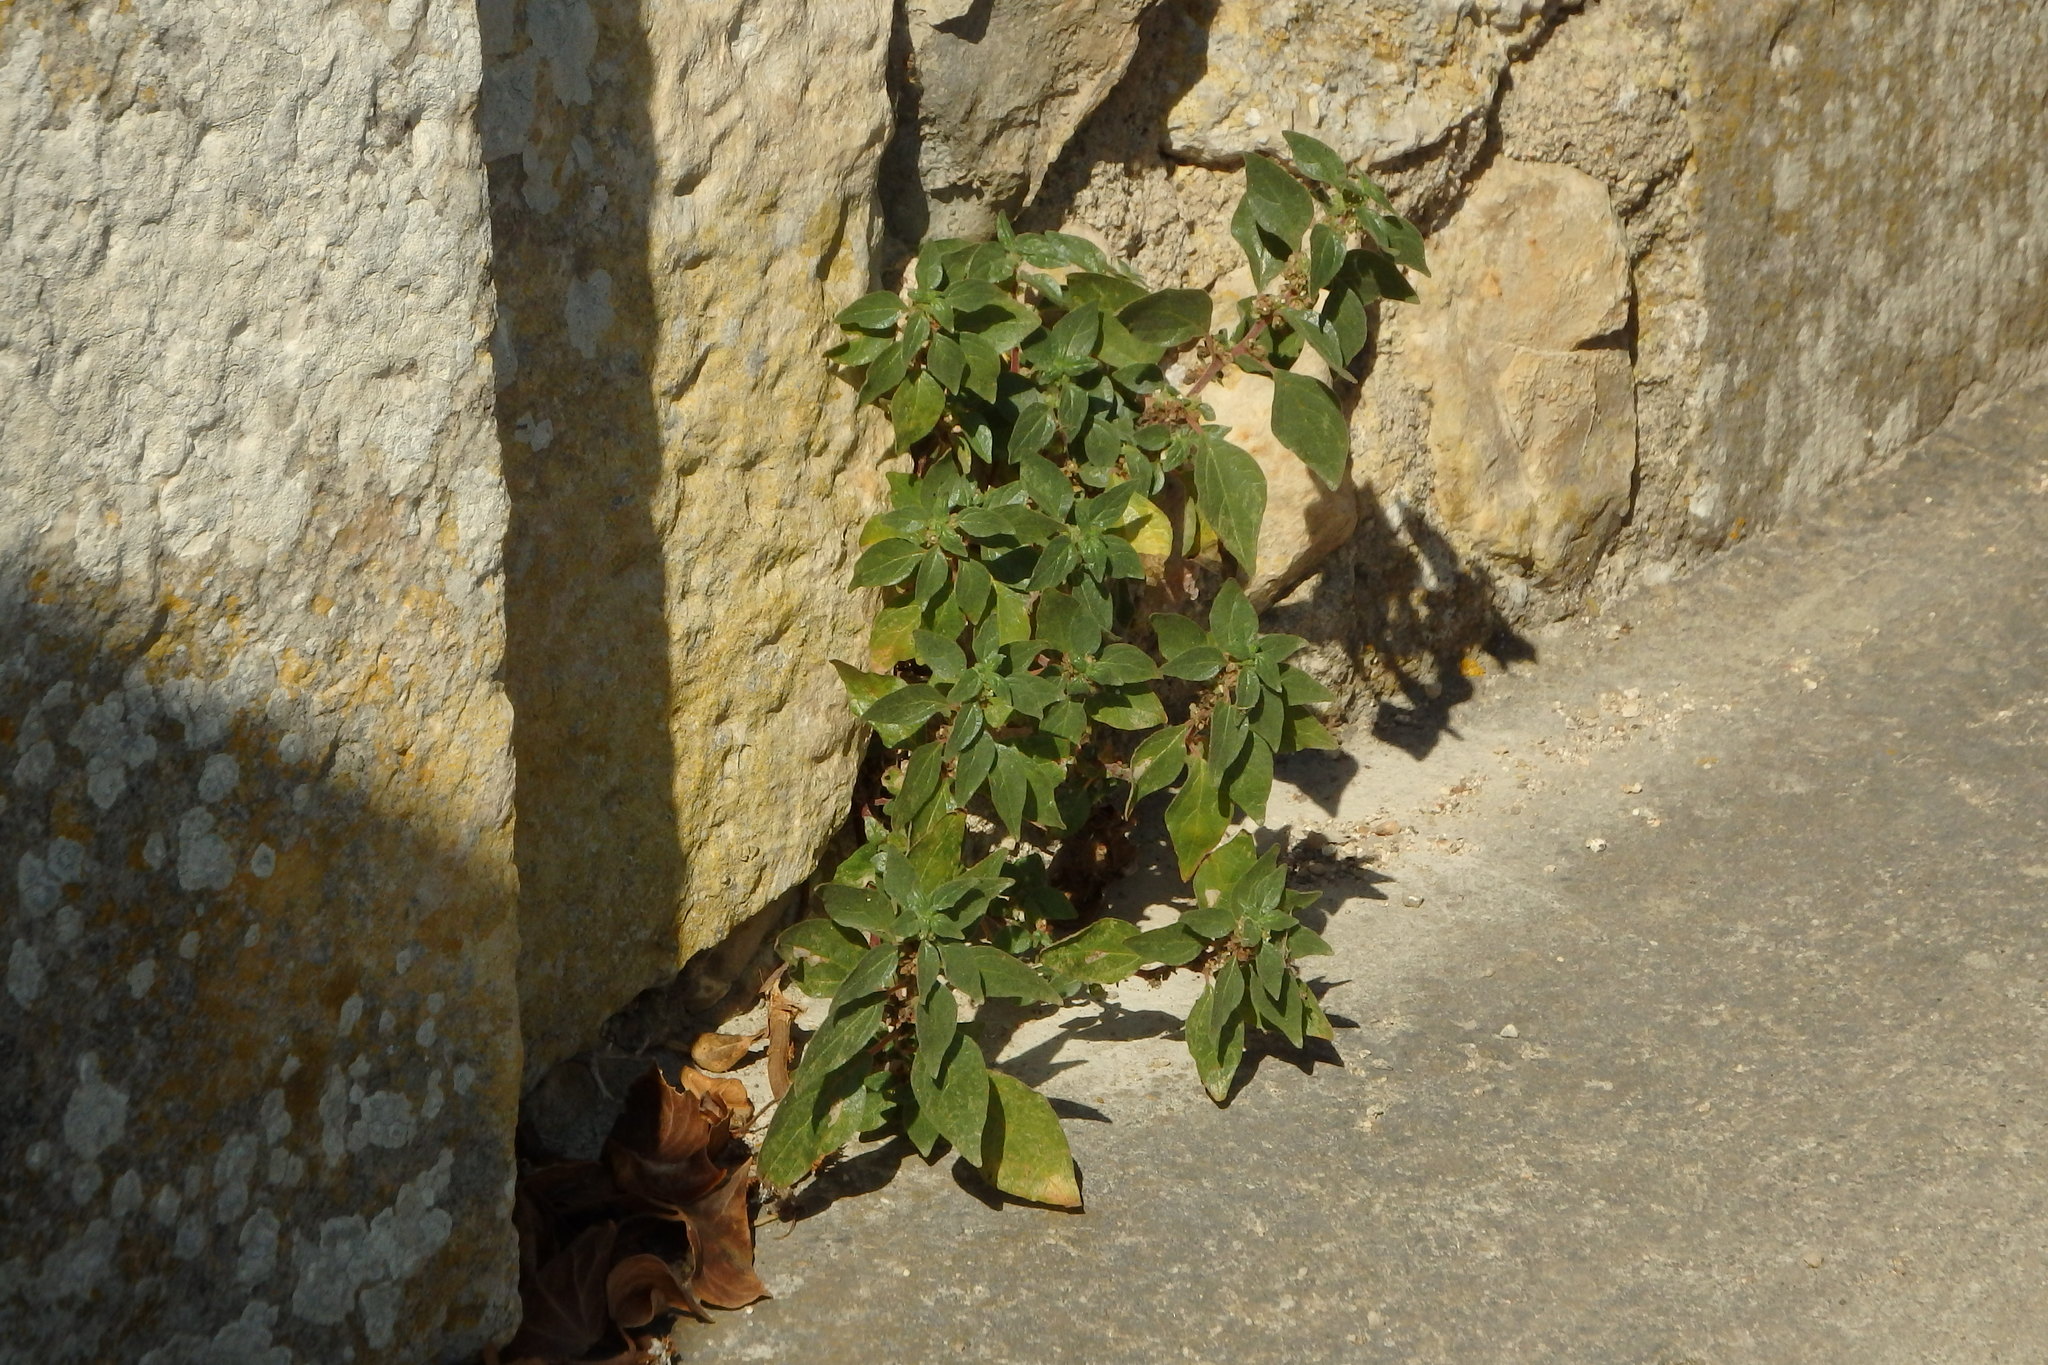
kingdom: Plantae
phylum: Tracheophyta
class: Magnoliopsida
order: Rosales
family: Urticaceae
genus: Parietaria
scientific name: Parietaria judaica
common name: Pellitory-of-the-wall
